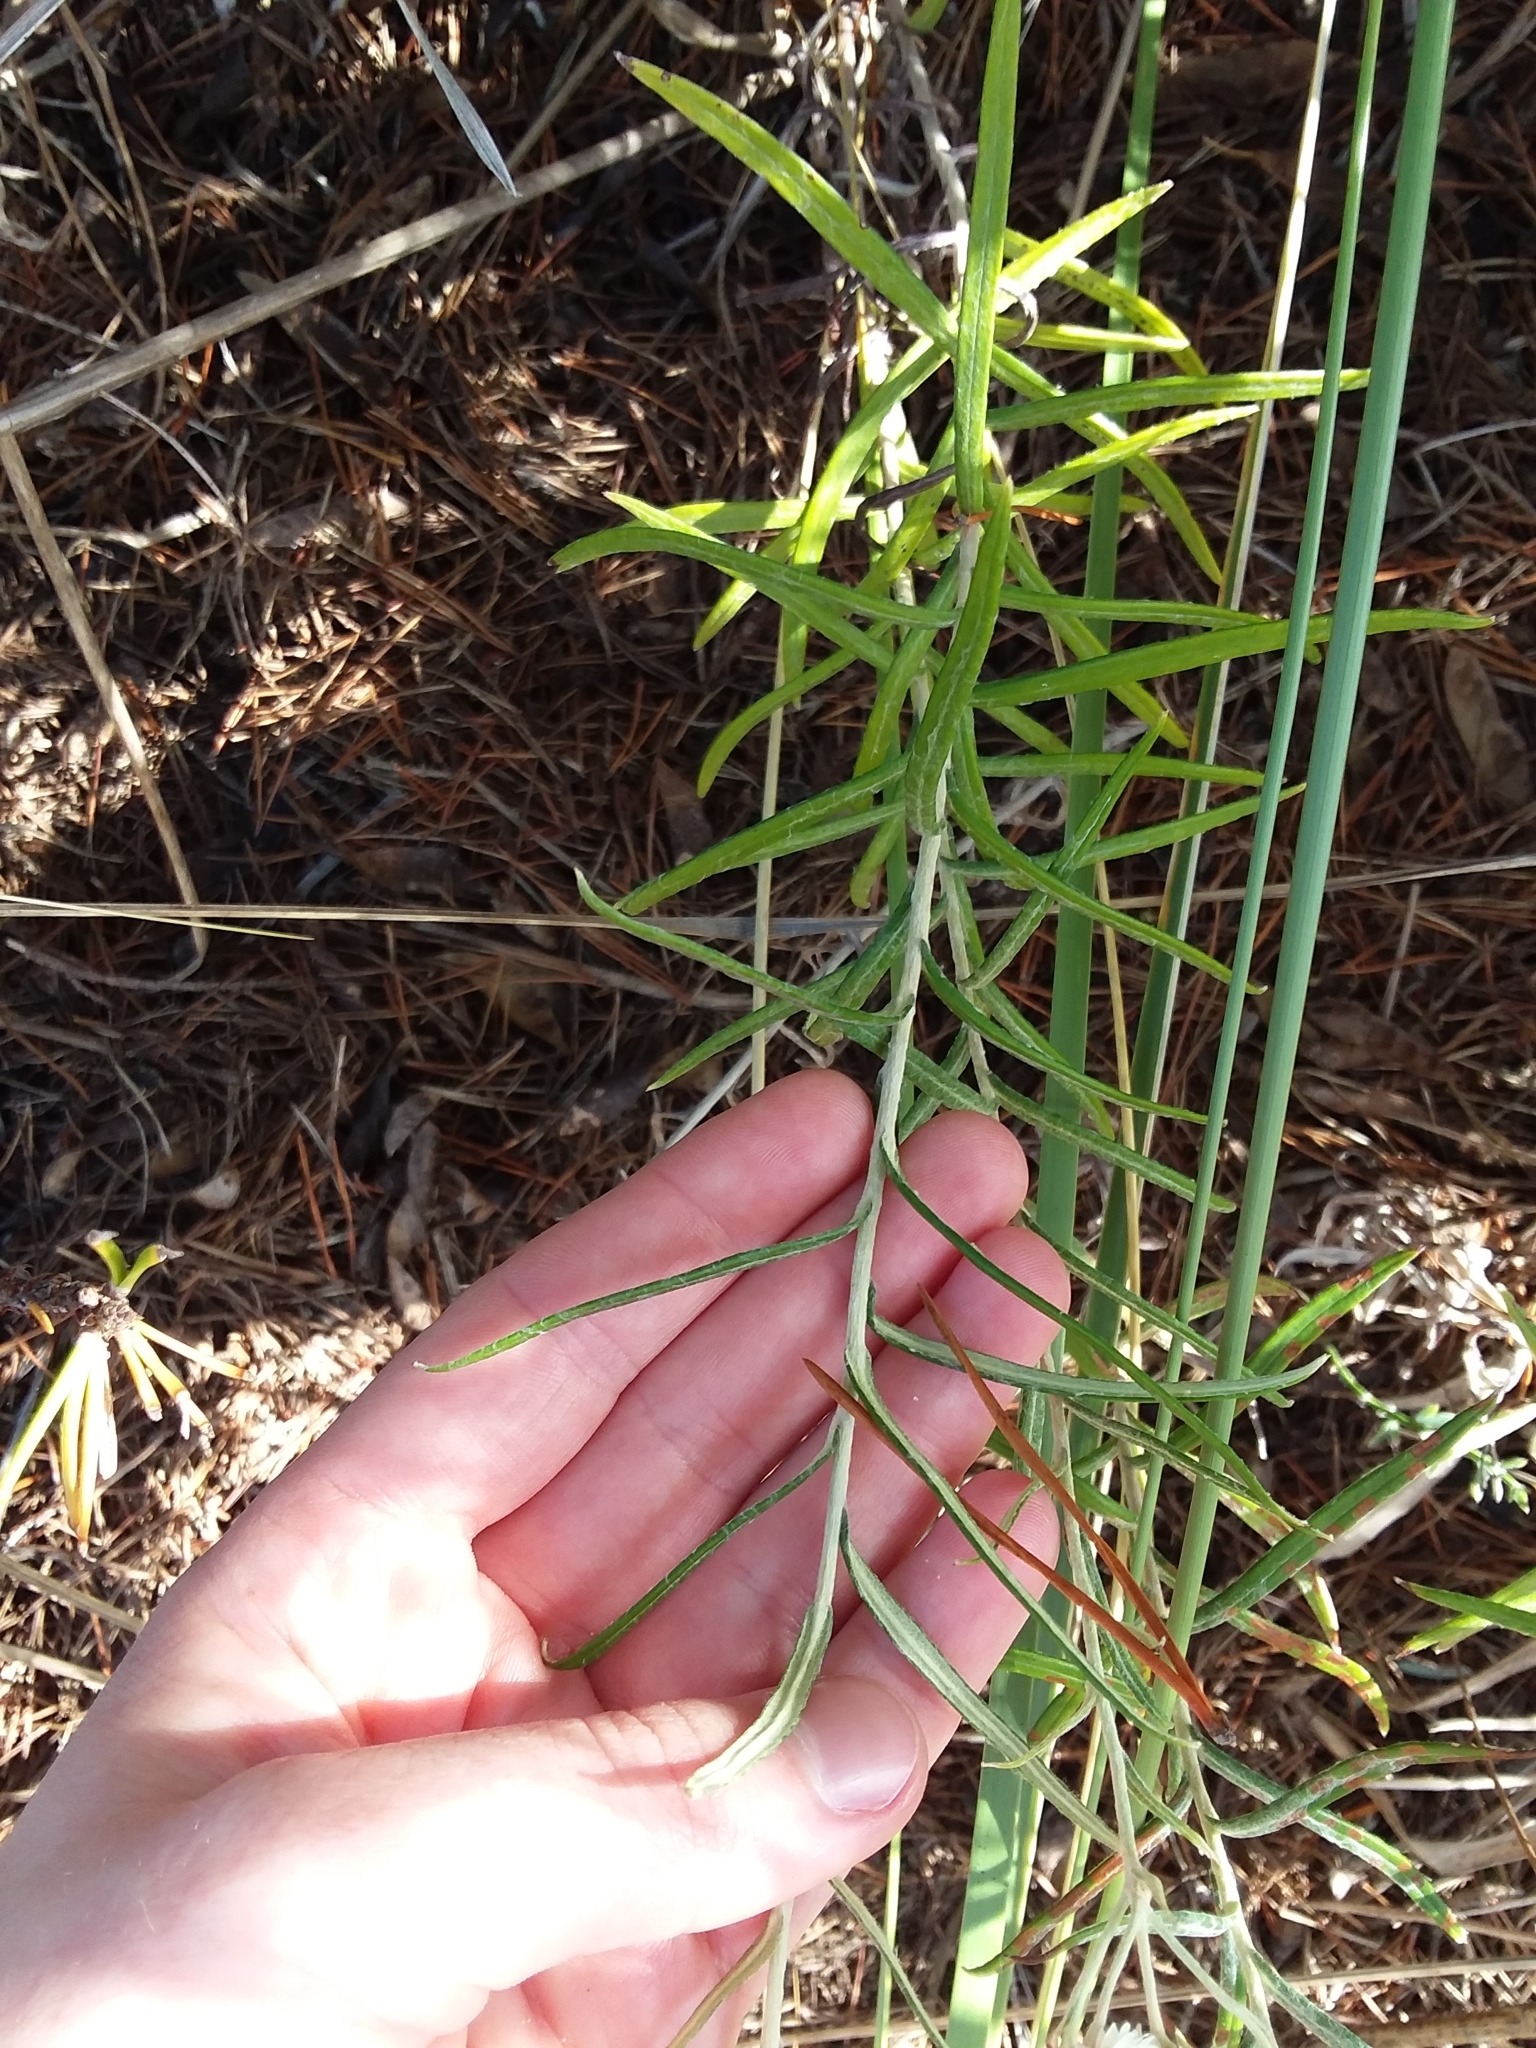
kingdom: Plantae
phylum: Tracheophyta
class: Magnoliopsida
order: Asterales
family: Asteraceae
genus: Anaphalis
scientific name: Anaphalis margaritacea
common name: Pearly everlasting
